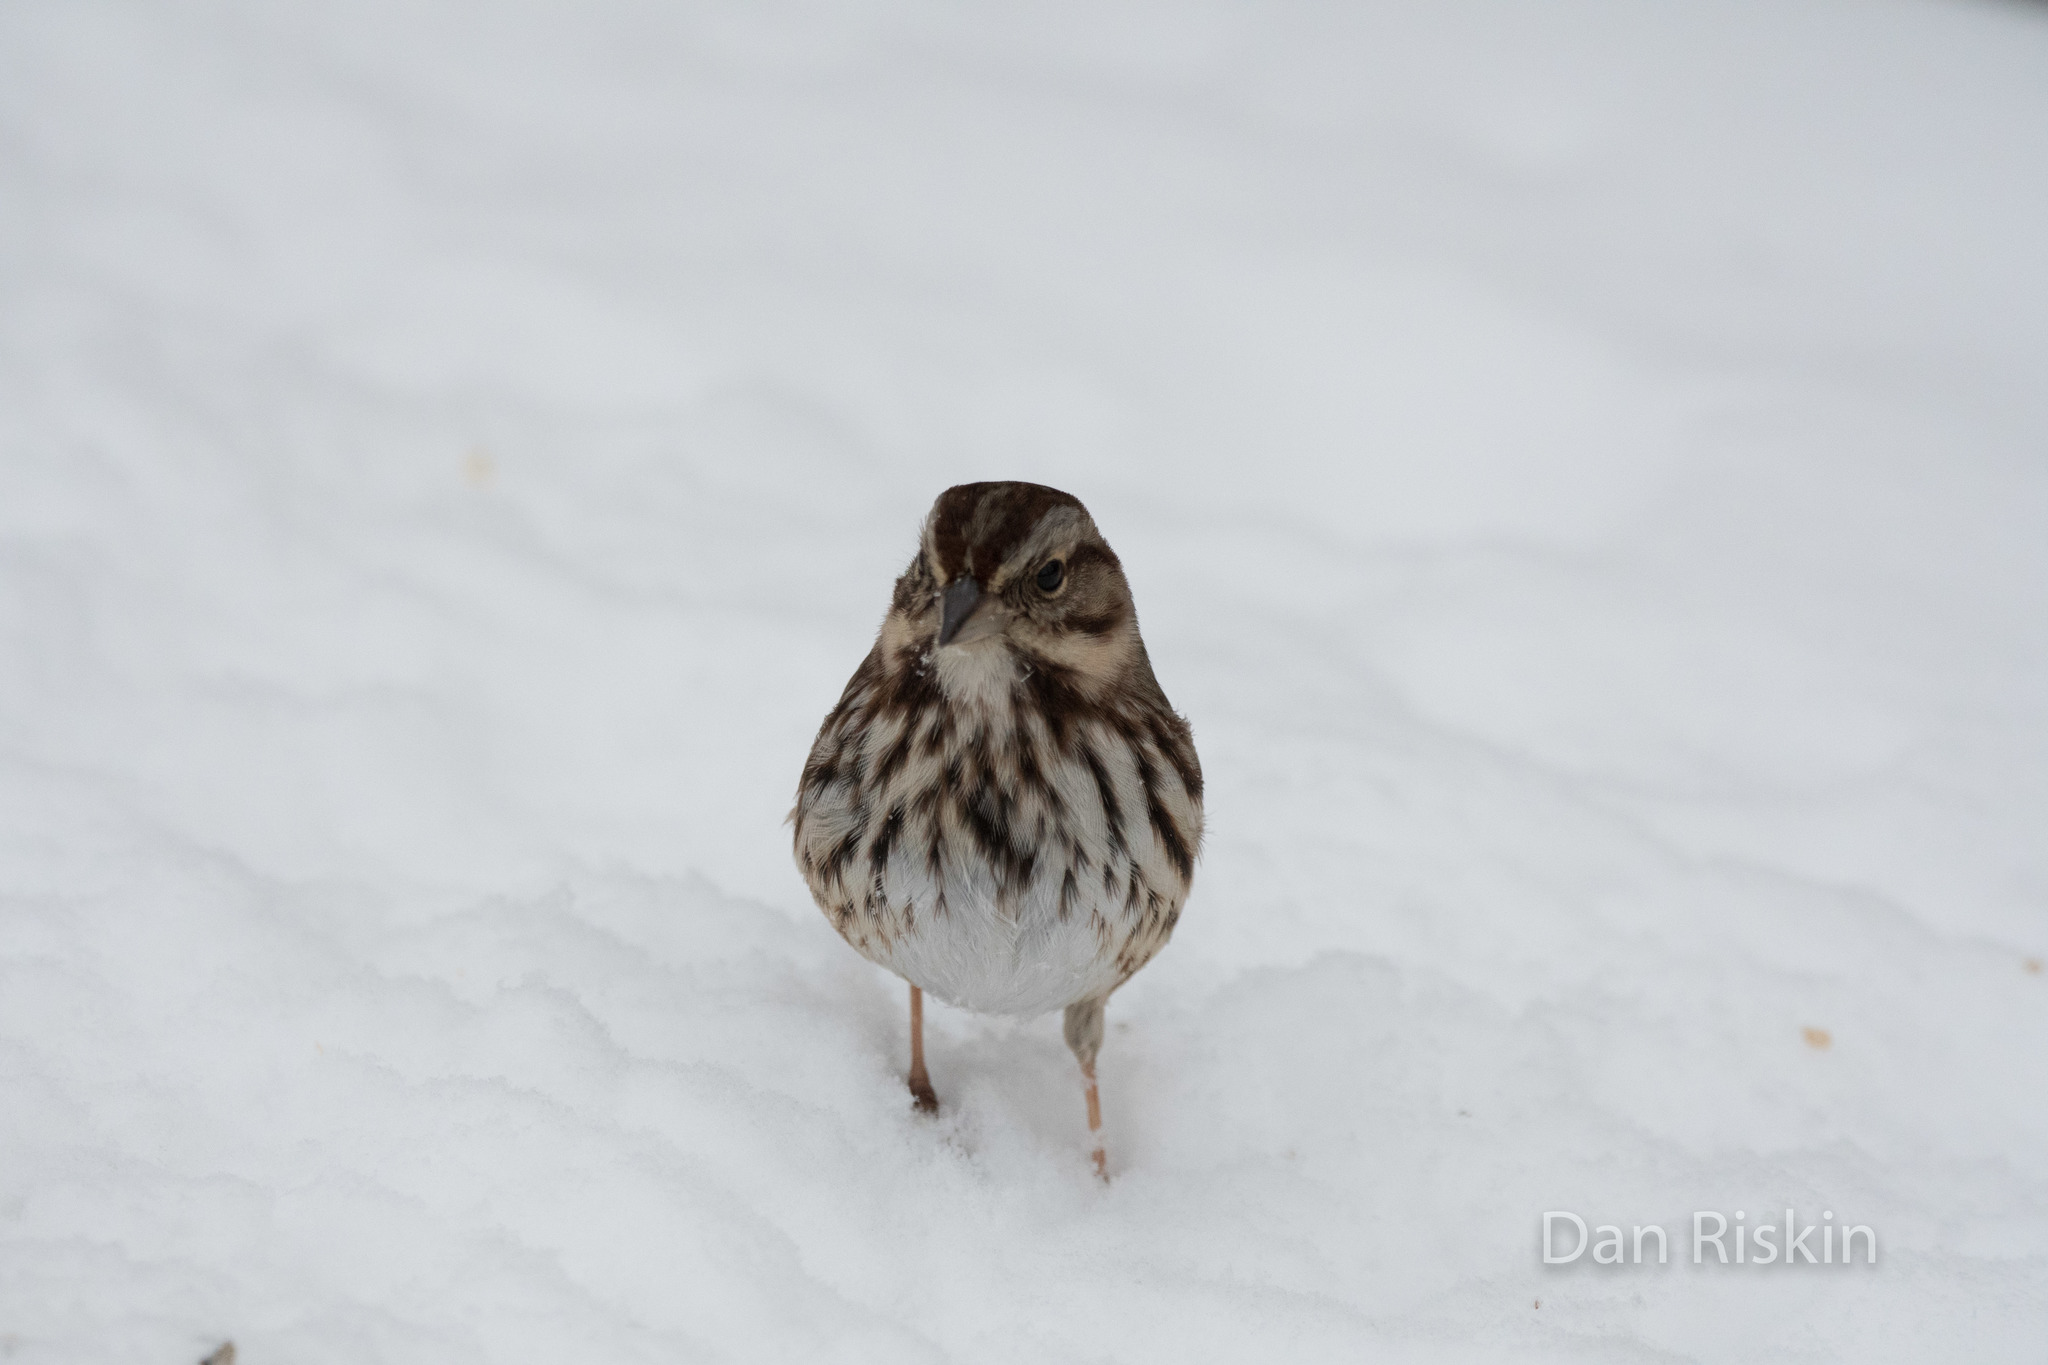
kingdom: Animalia
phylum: Chordata
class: Aves
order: Passeriformes
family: Passerellidae
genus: Melospiza
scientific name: Melospiza melodia
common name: Song sparrow
